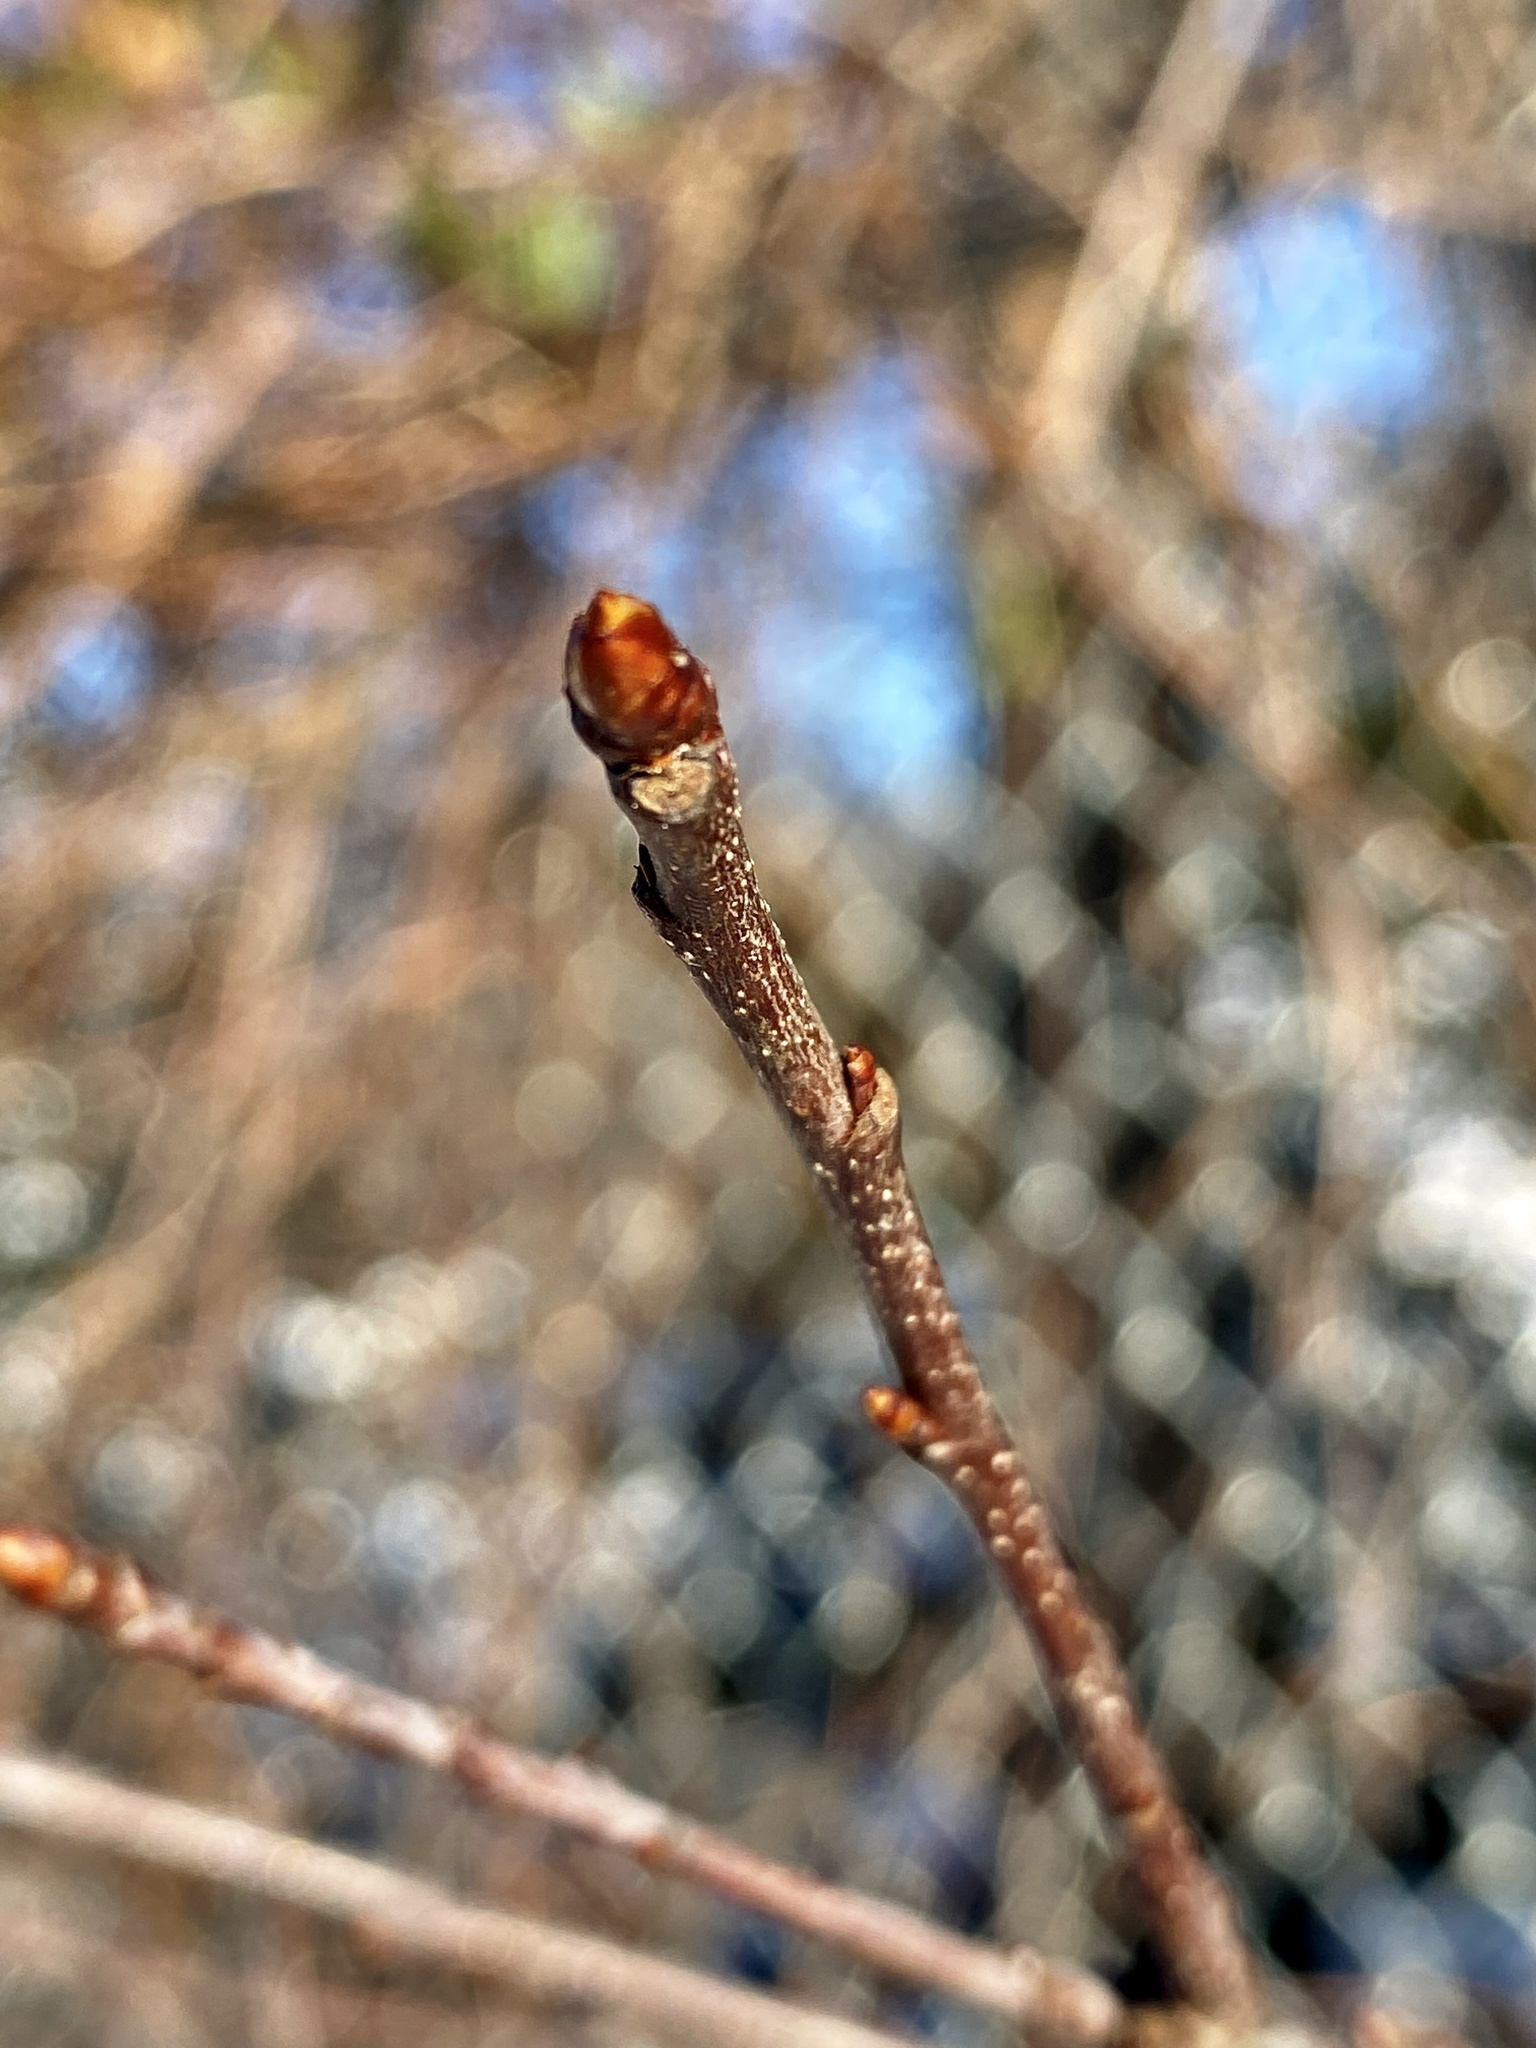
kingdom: Plantae
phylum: Tracheophyta
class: Magnoliopsida
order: Rosales
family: Rosaceae
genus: Prunus
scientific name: Prunus serotina
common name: Black cherry
